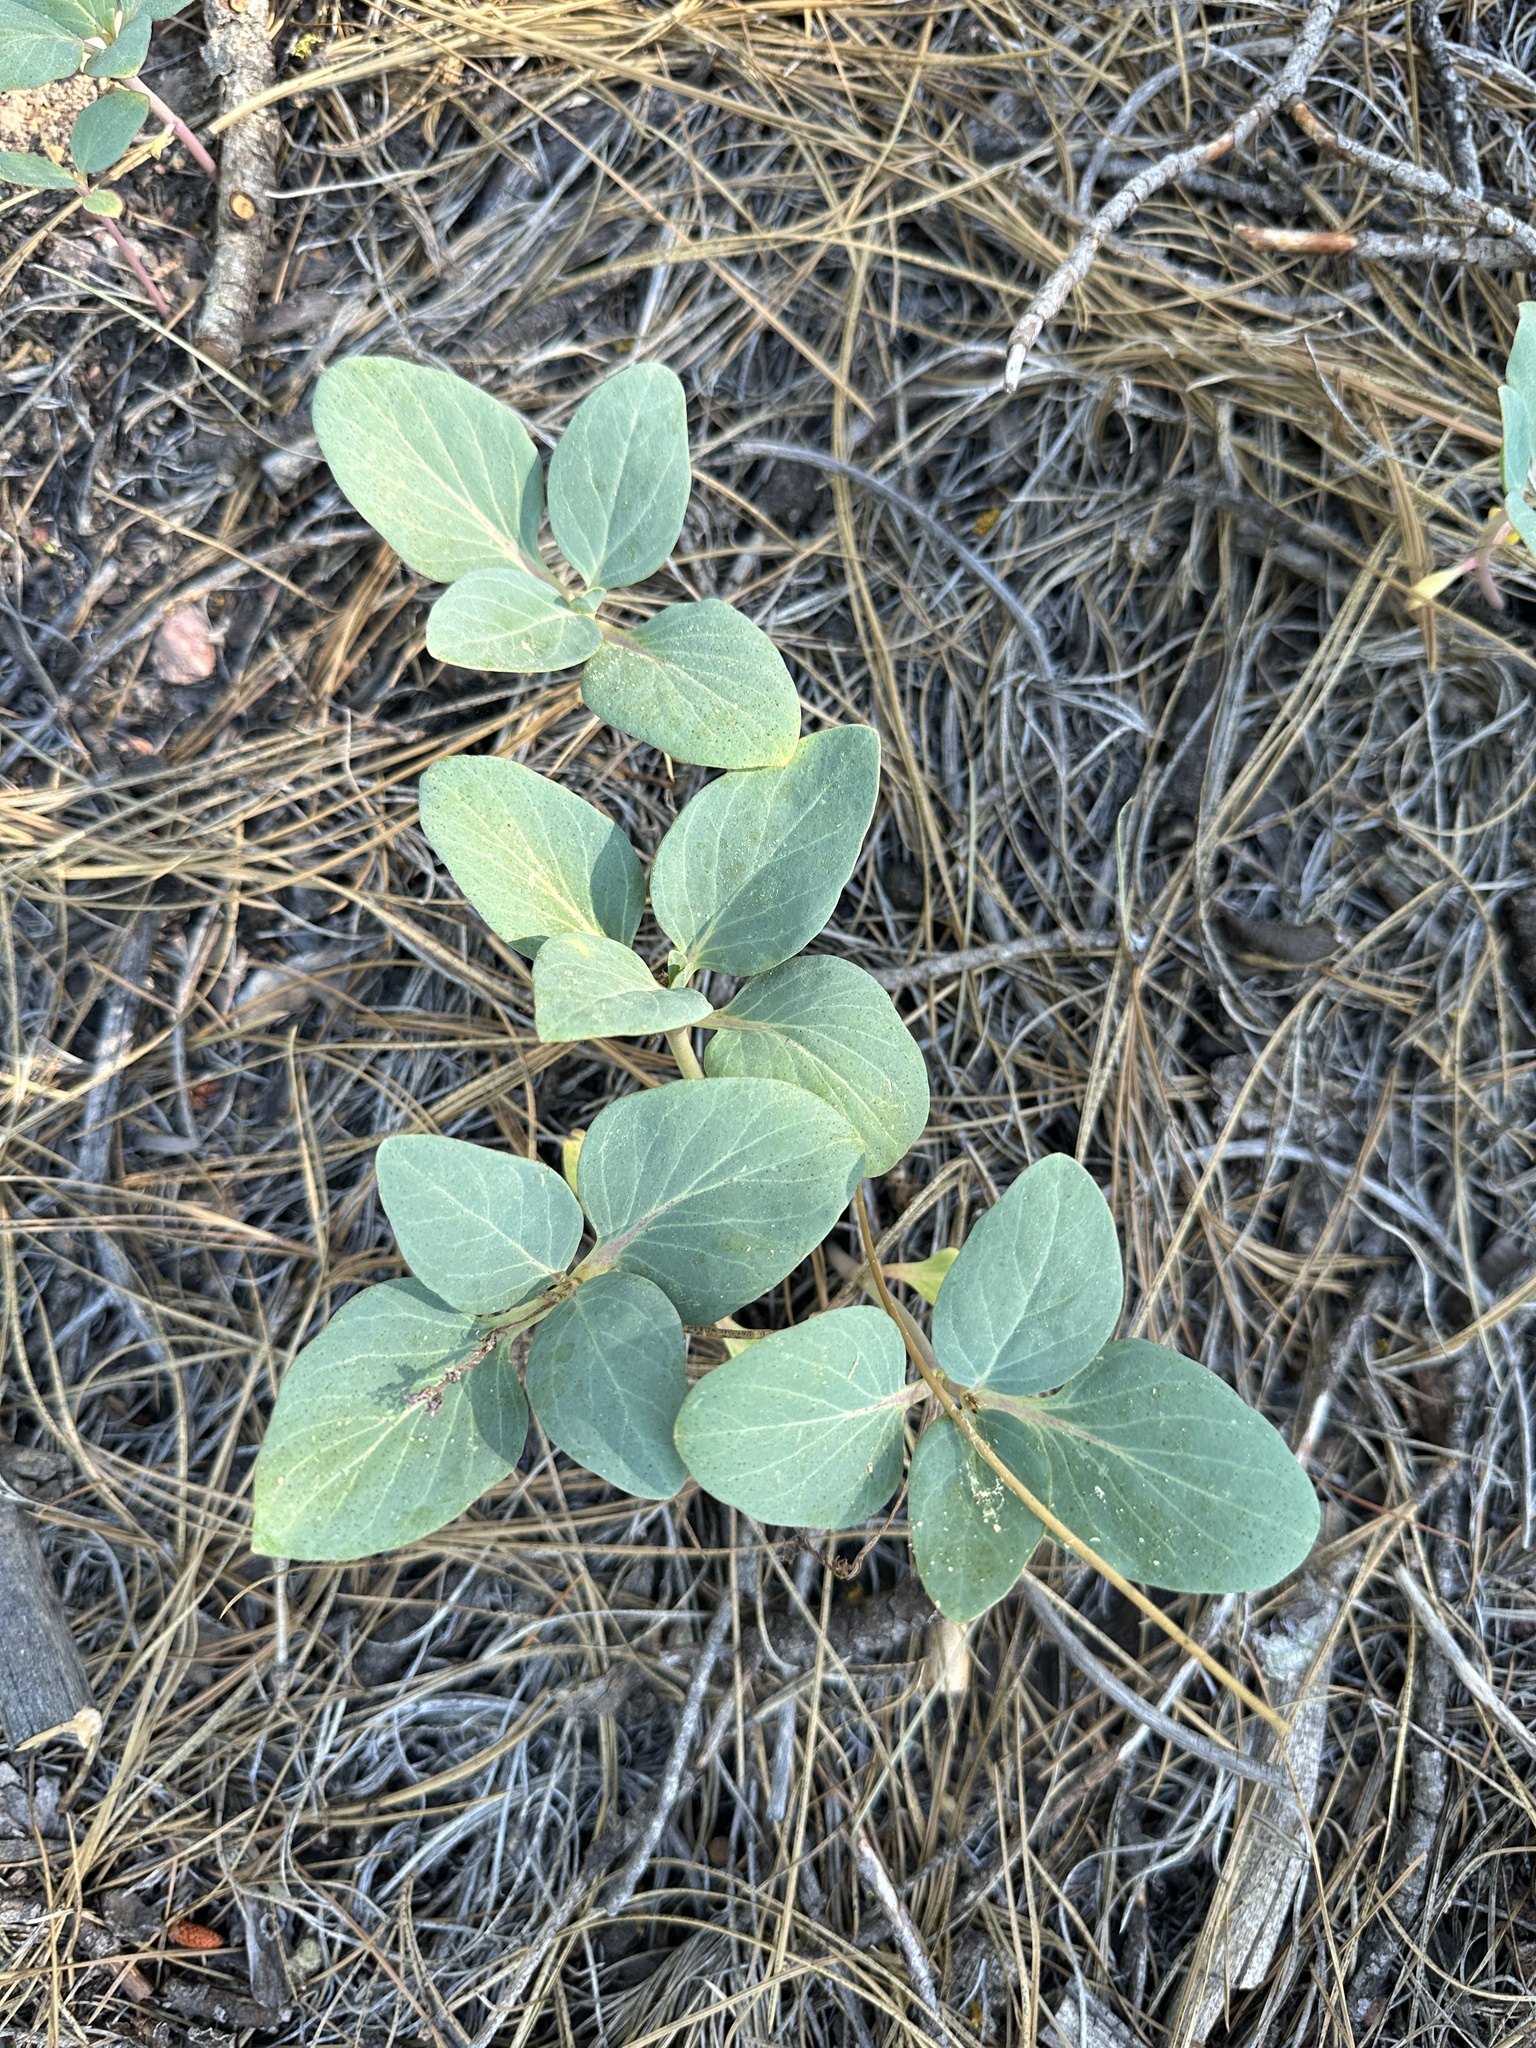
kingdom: Plantae
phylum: Tracheophyta
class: Magnoliopsida
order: Gentianales
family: Apocynaceae
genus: Cycladenia
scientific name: Cycladenia humilis
